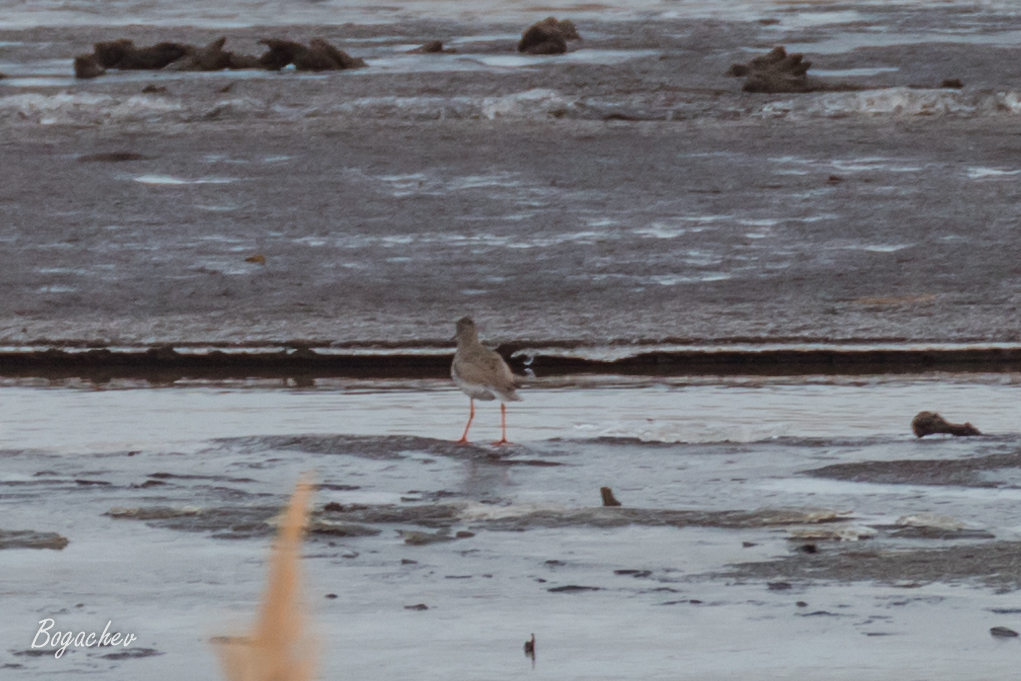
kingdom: Animalia
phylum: Chordata
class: Aves
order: Charadriiformes
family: Scolopacidae
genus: Tringa
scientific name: Tringa totanus
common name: Common redshank
